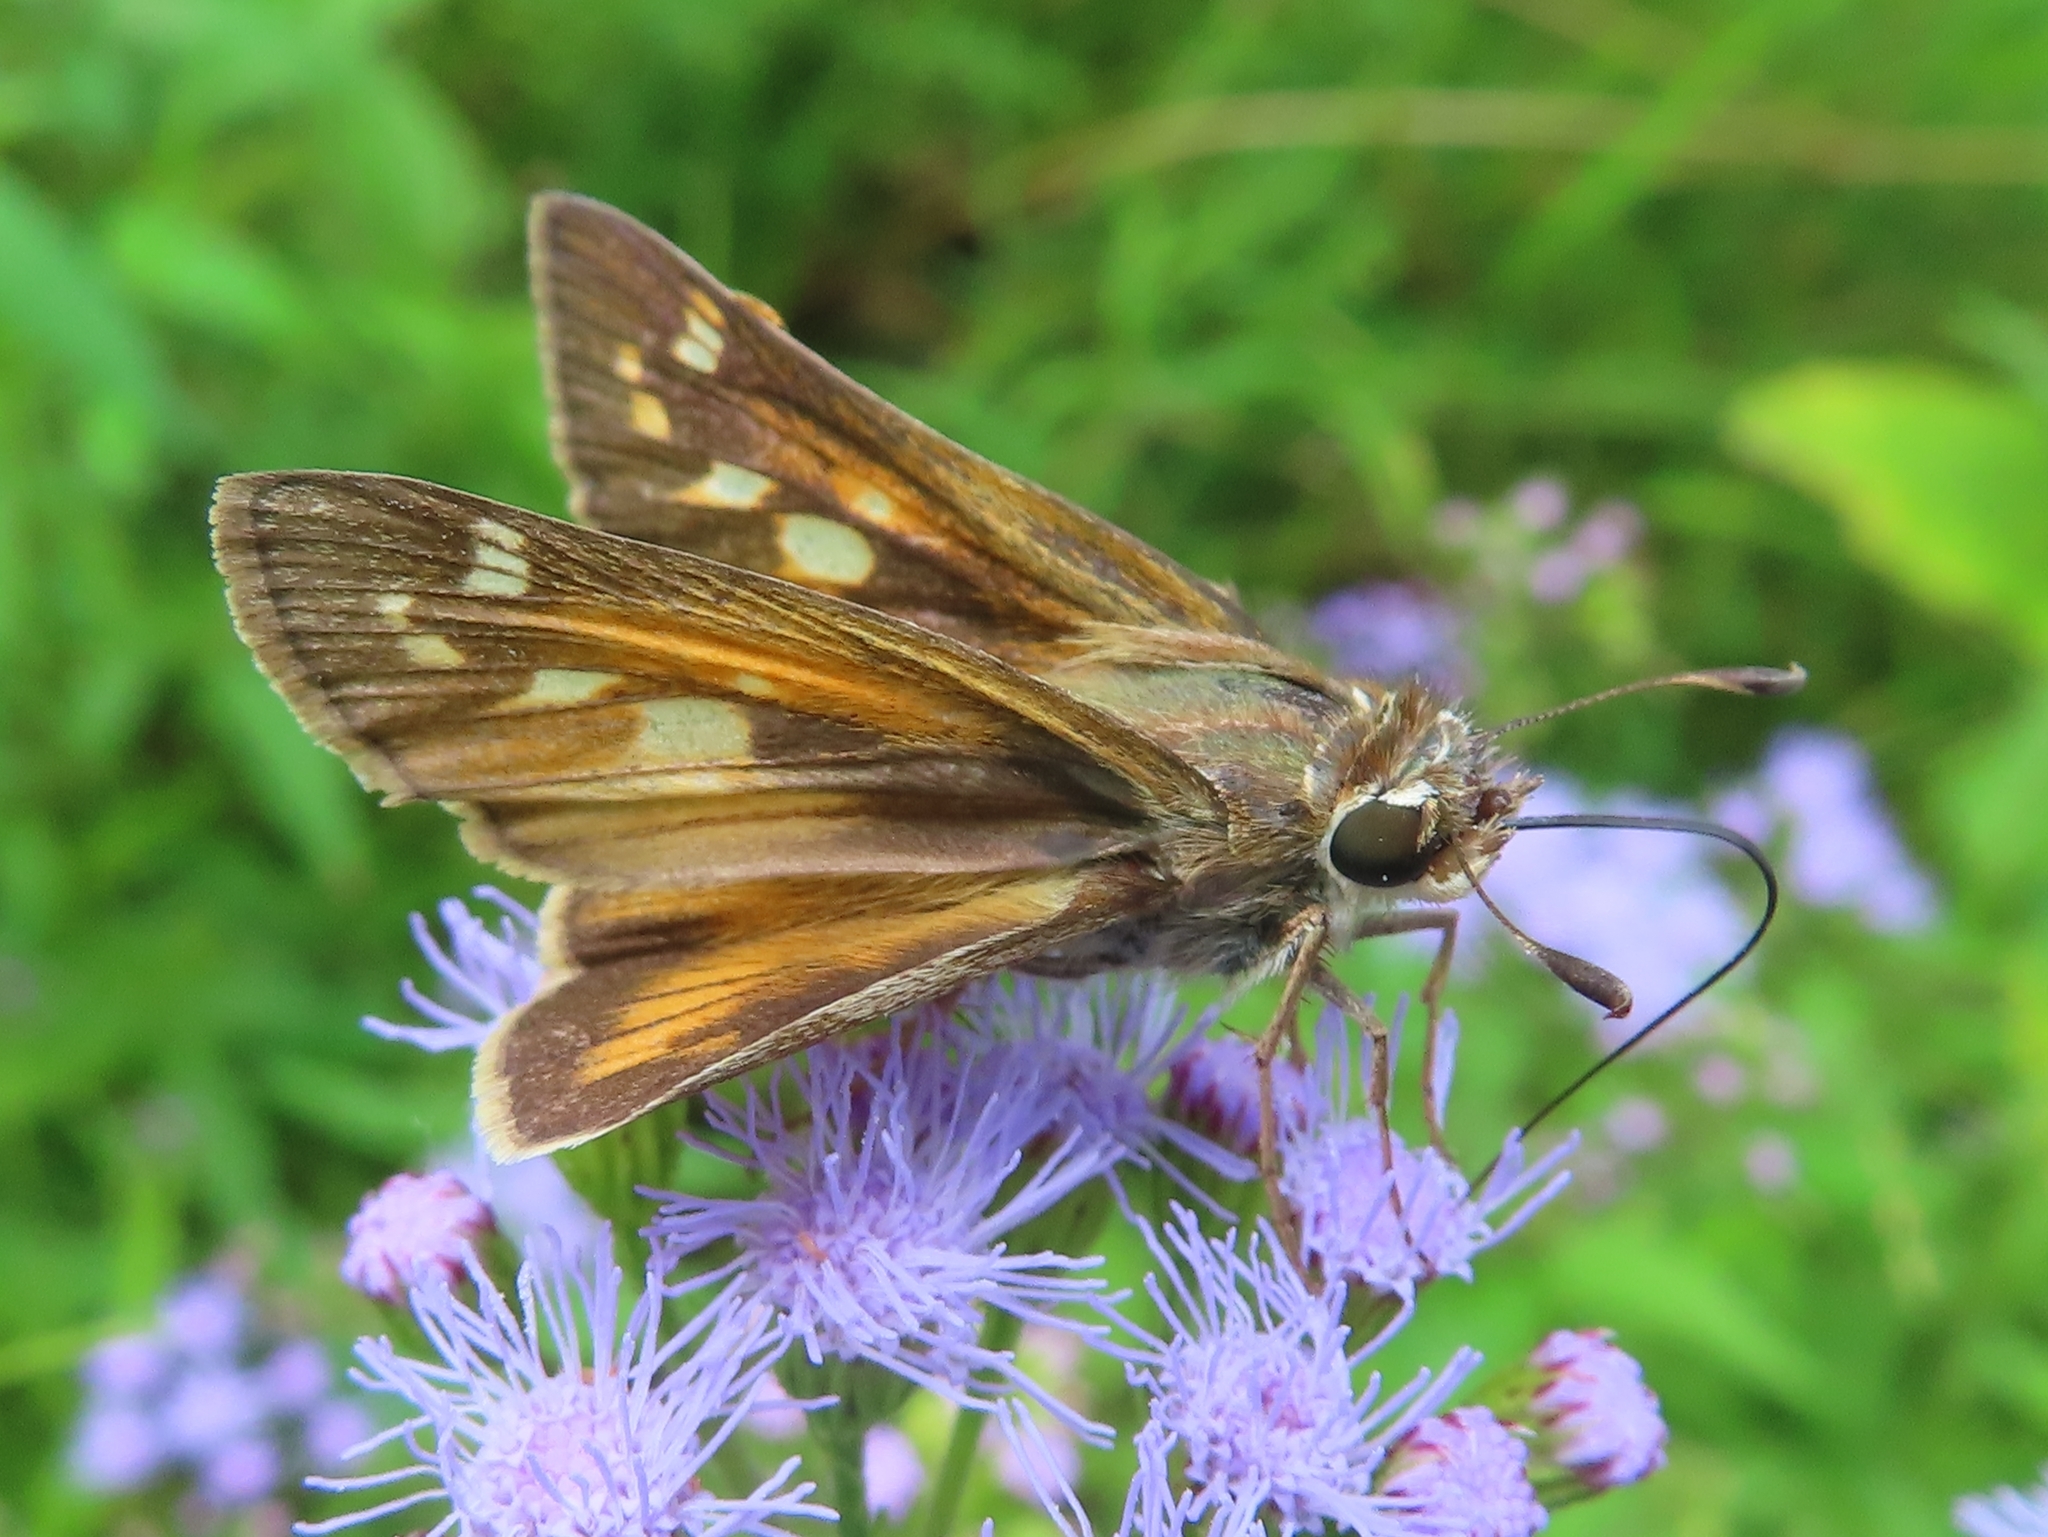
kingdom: Animalia
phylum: Arthropoda
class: Insecta
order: Lepidoptera
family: Hesperiidae
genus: Atalopedes
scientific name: Atalopedes
